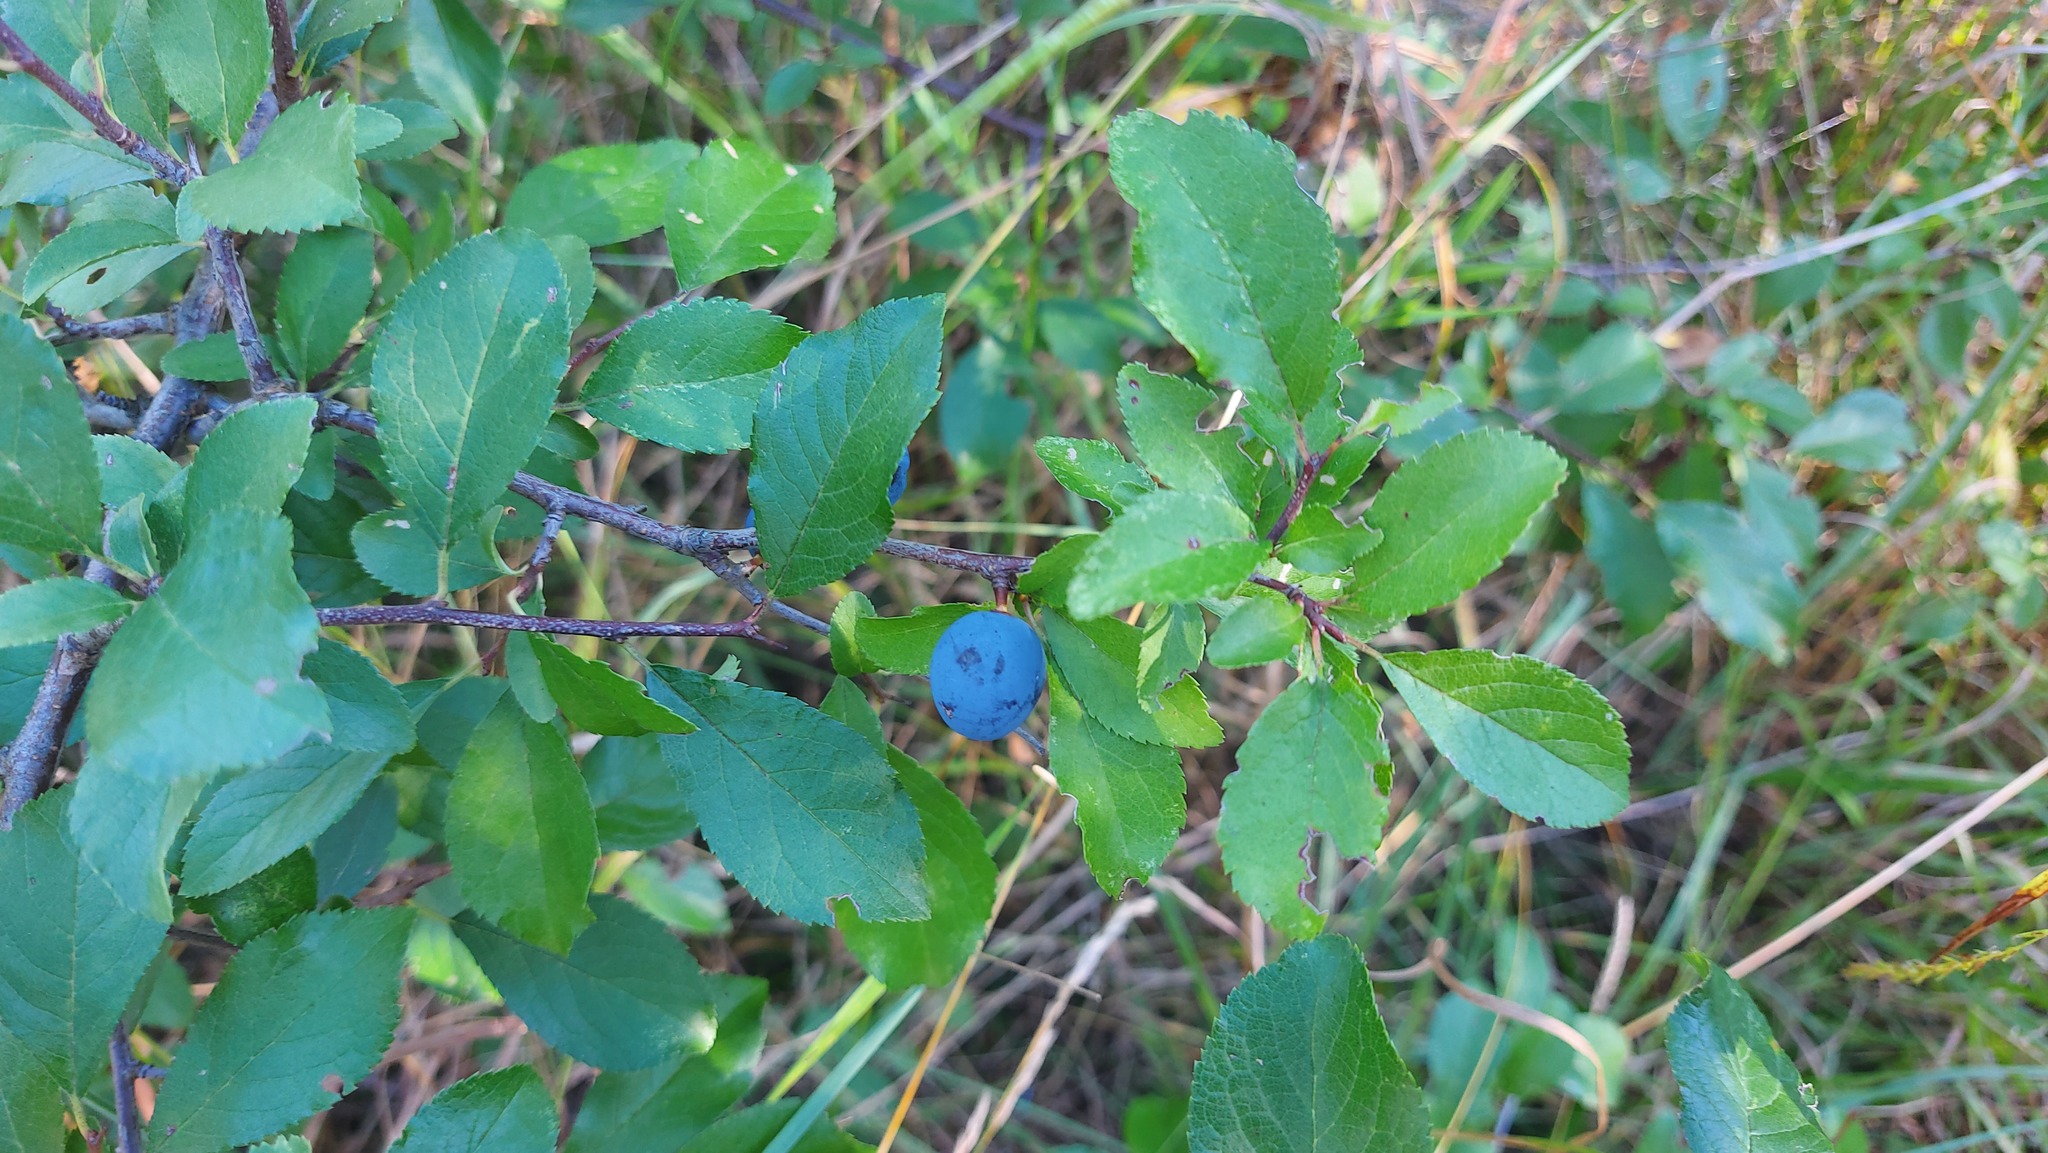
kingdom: Plantae
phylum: Tracheophyta
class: Magnoliopsida
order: Rosales
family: Rosaceae
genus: Prunus
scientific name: Prunus spinosa
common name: Blackthorn
